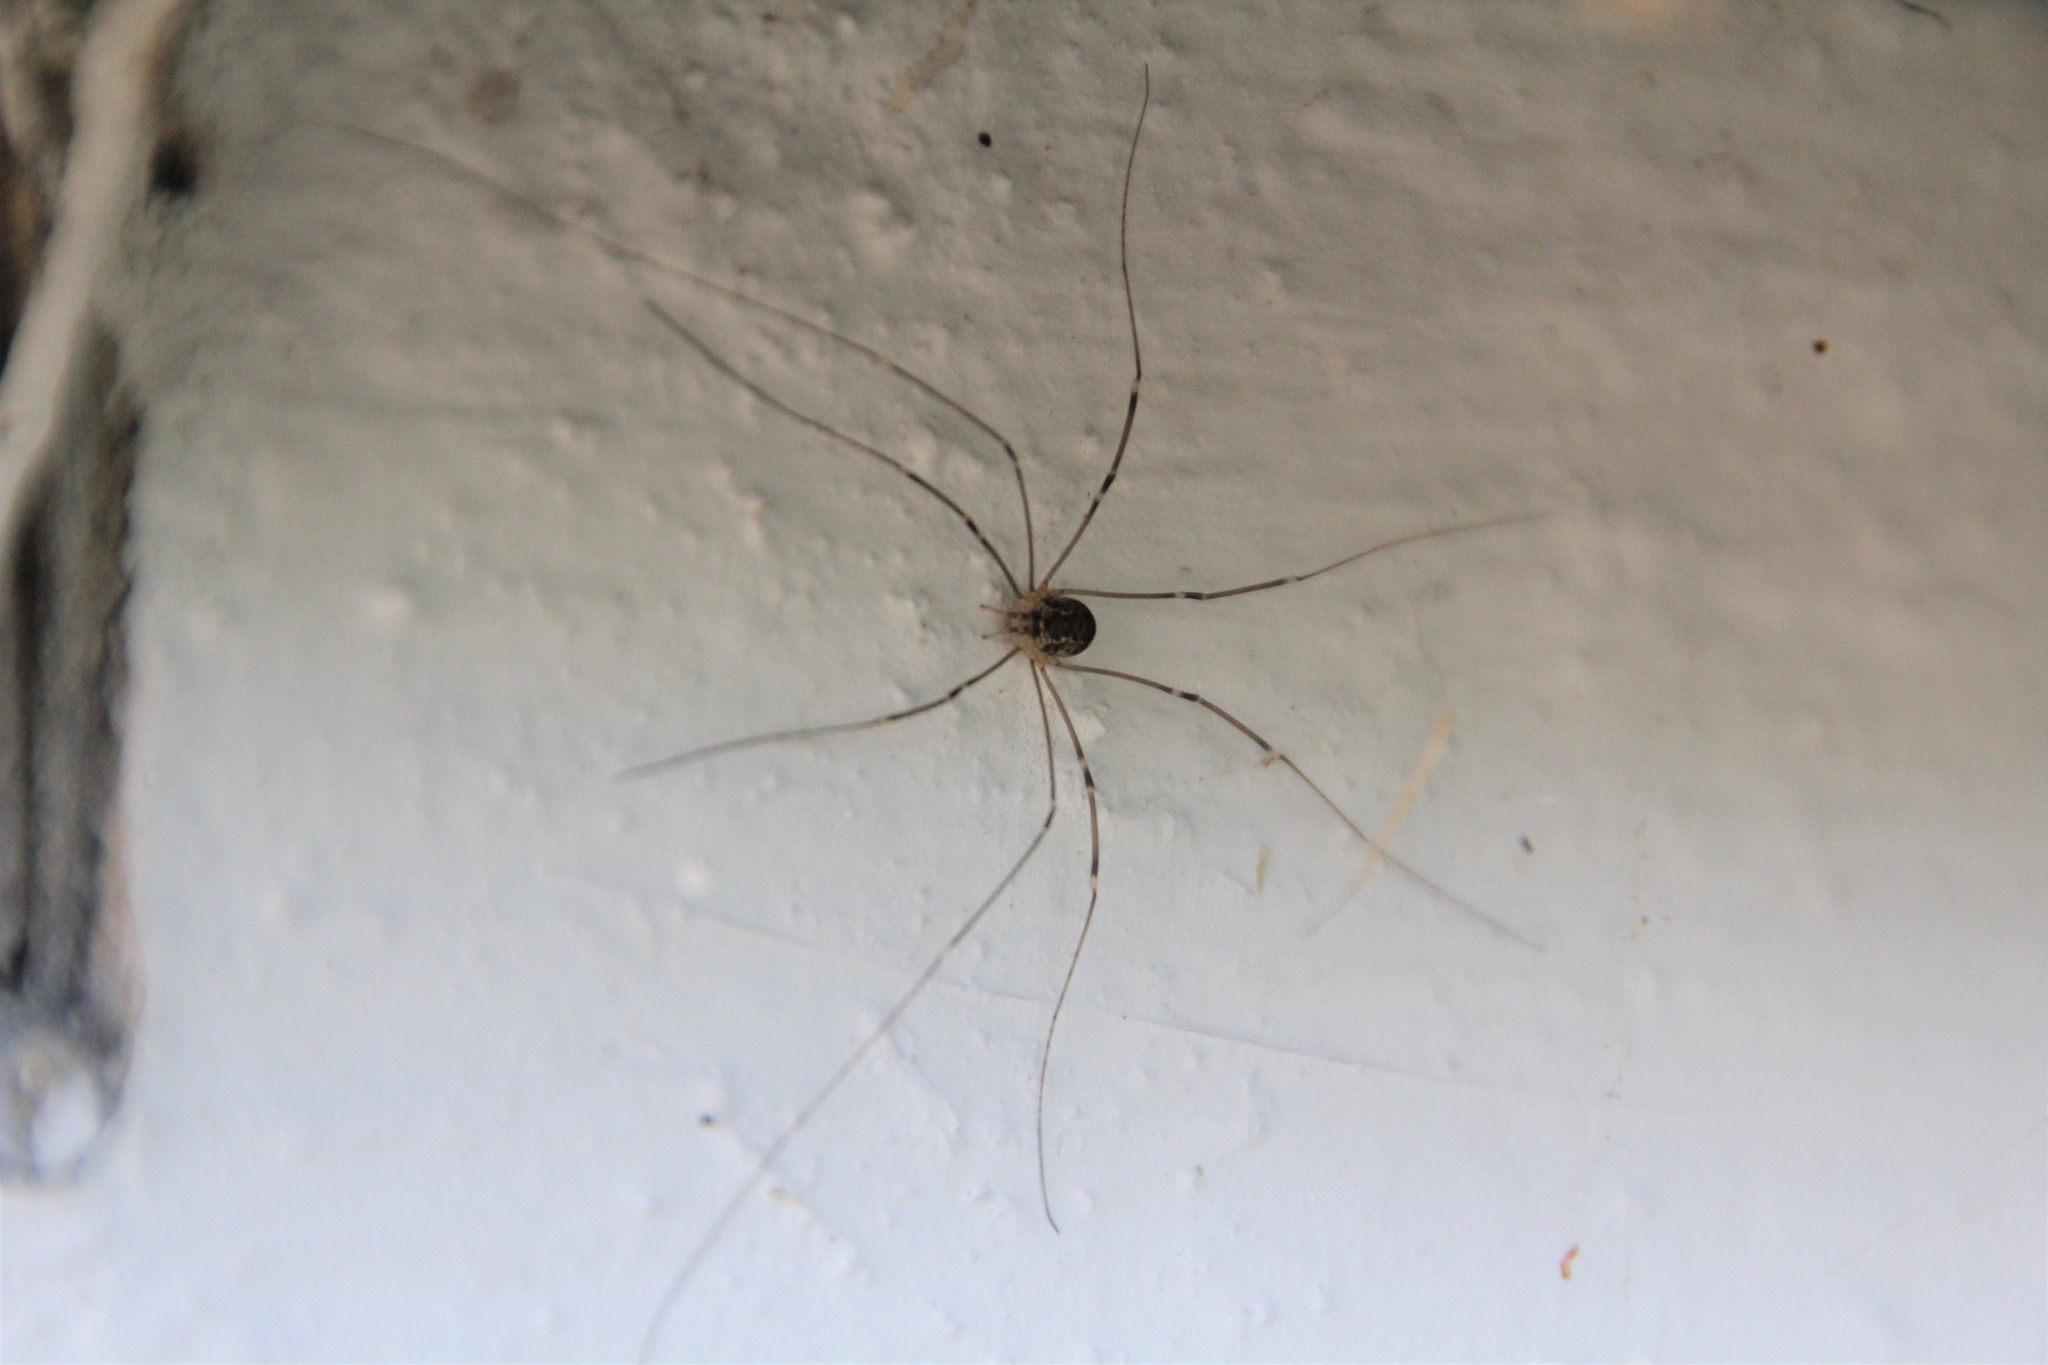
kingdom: Animalia
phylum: Arthropoda
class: Arachnida
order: Opiliones
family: Sclerosomatidae
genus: Leiobunum
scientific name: Leiobunum gracile
